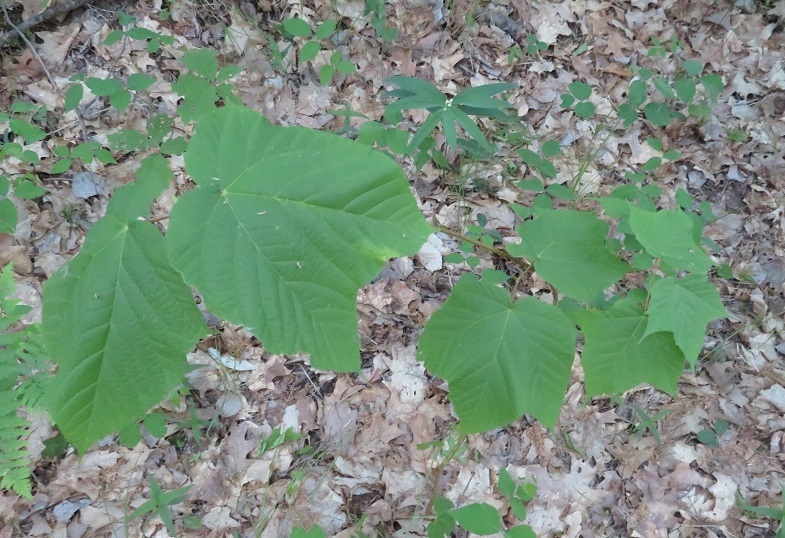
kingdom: Plantae
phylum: Tracheophyta
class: Magnoliopsida
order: Sapindales
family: Sapindaceae
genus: Acer
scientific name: Acer pensylvanicum
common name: Moosewood
